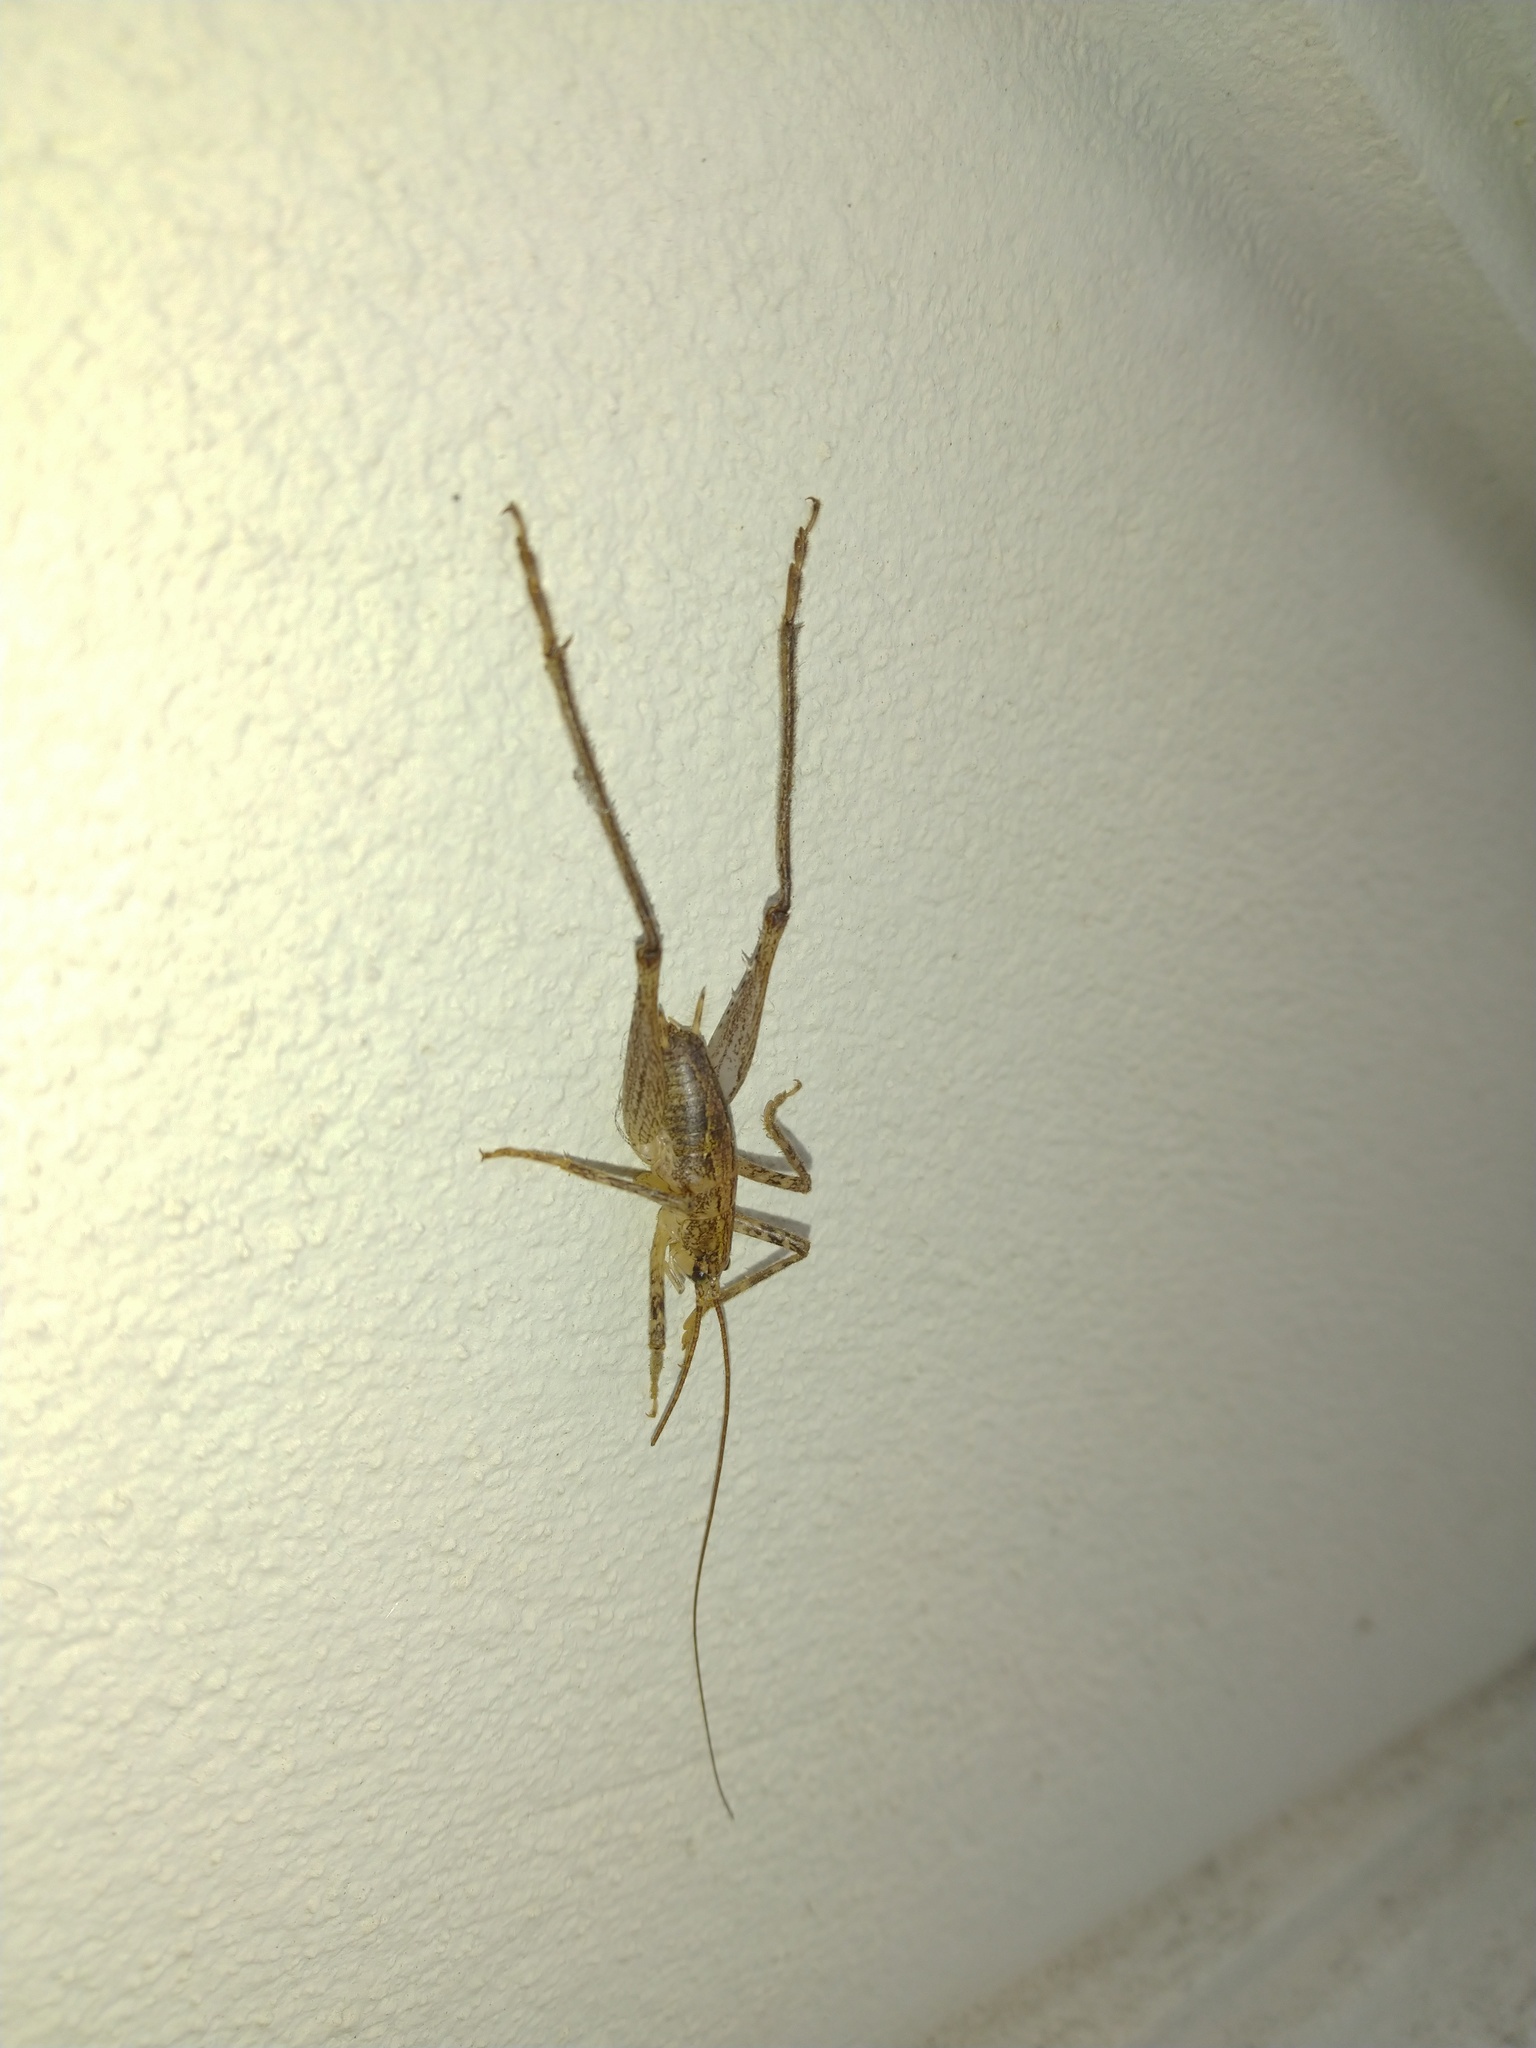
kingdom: Animalia
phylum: Arthropoda
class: Insecta
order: Orthoptera
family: Rhaphidophoridae
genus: Isoplectron
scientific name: Isoplectron armatum
